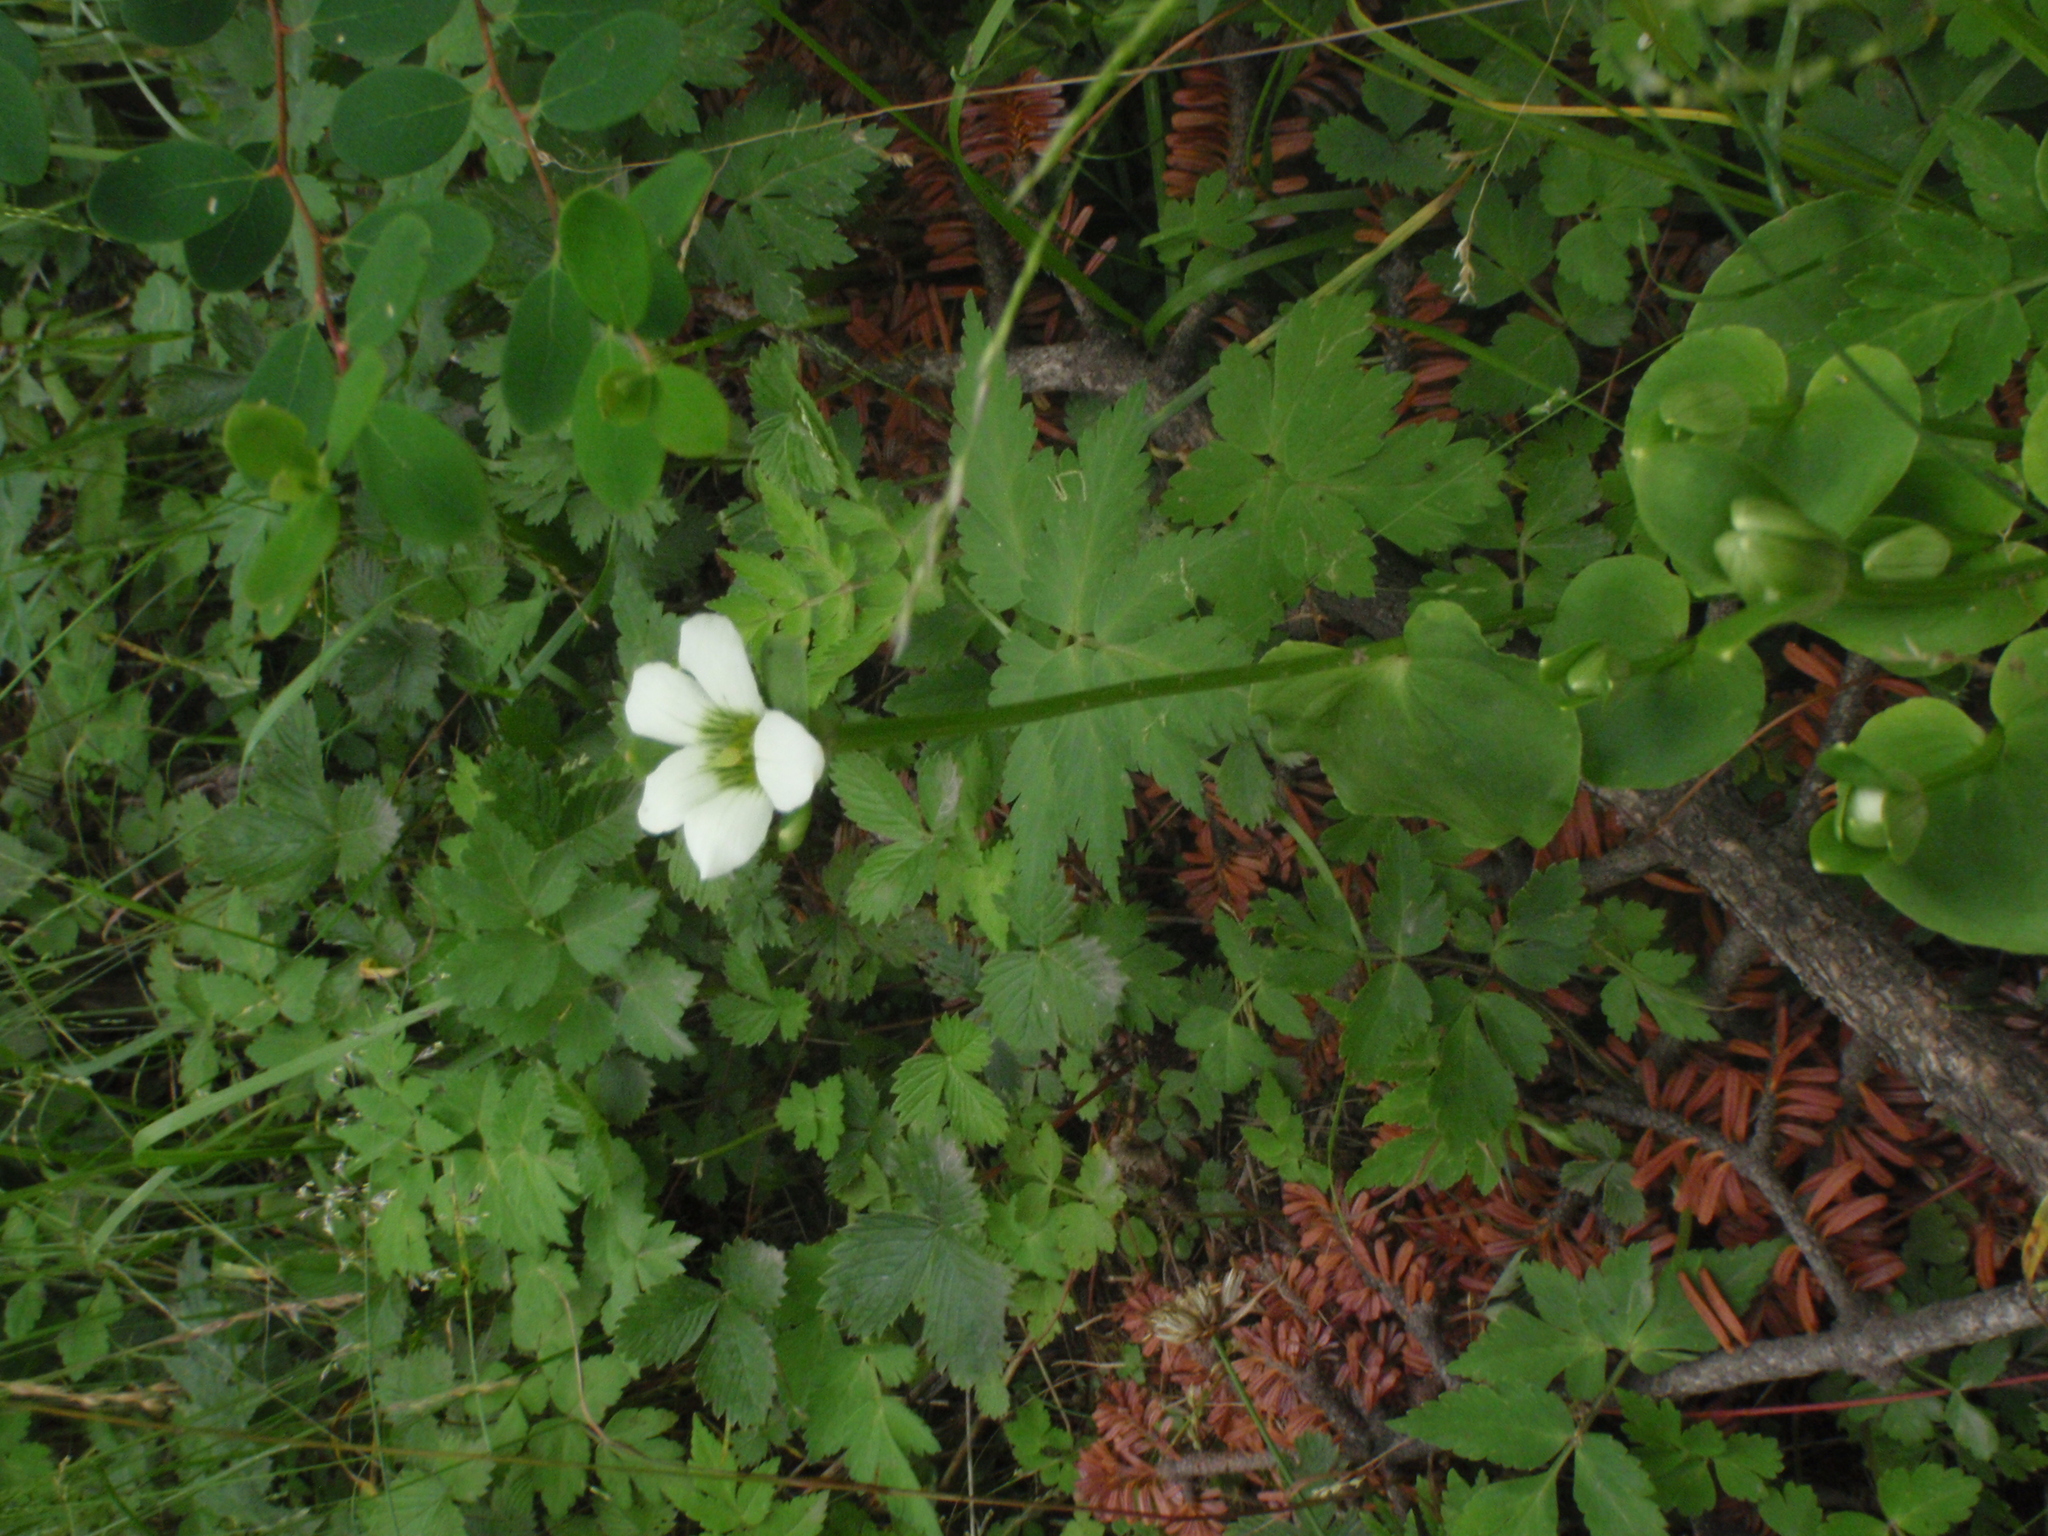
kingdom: Plantae
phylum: Tracheophyta
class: Magnoliopsida
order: Celastrales
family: Parnassiaceae
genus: Parnassia
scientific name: Parnassia delavayi
